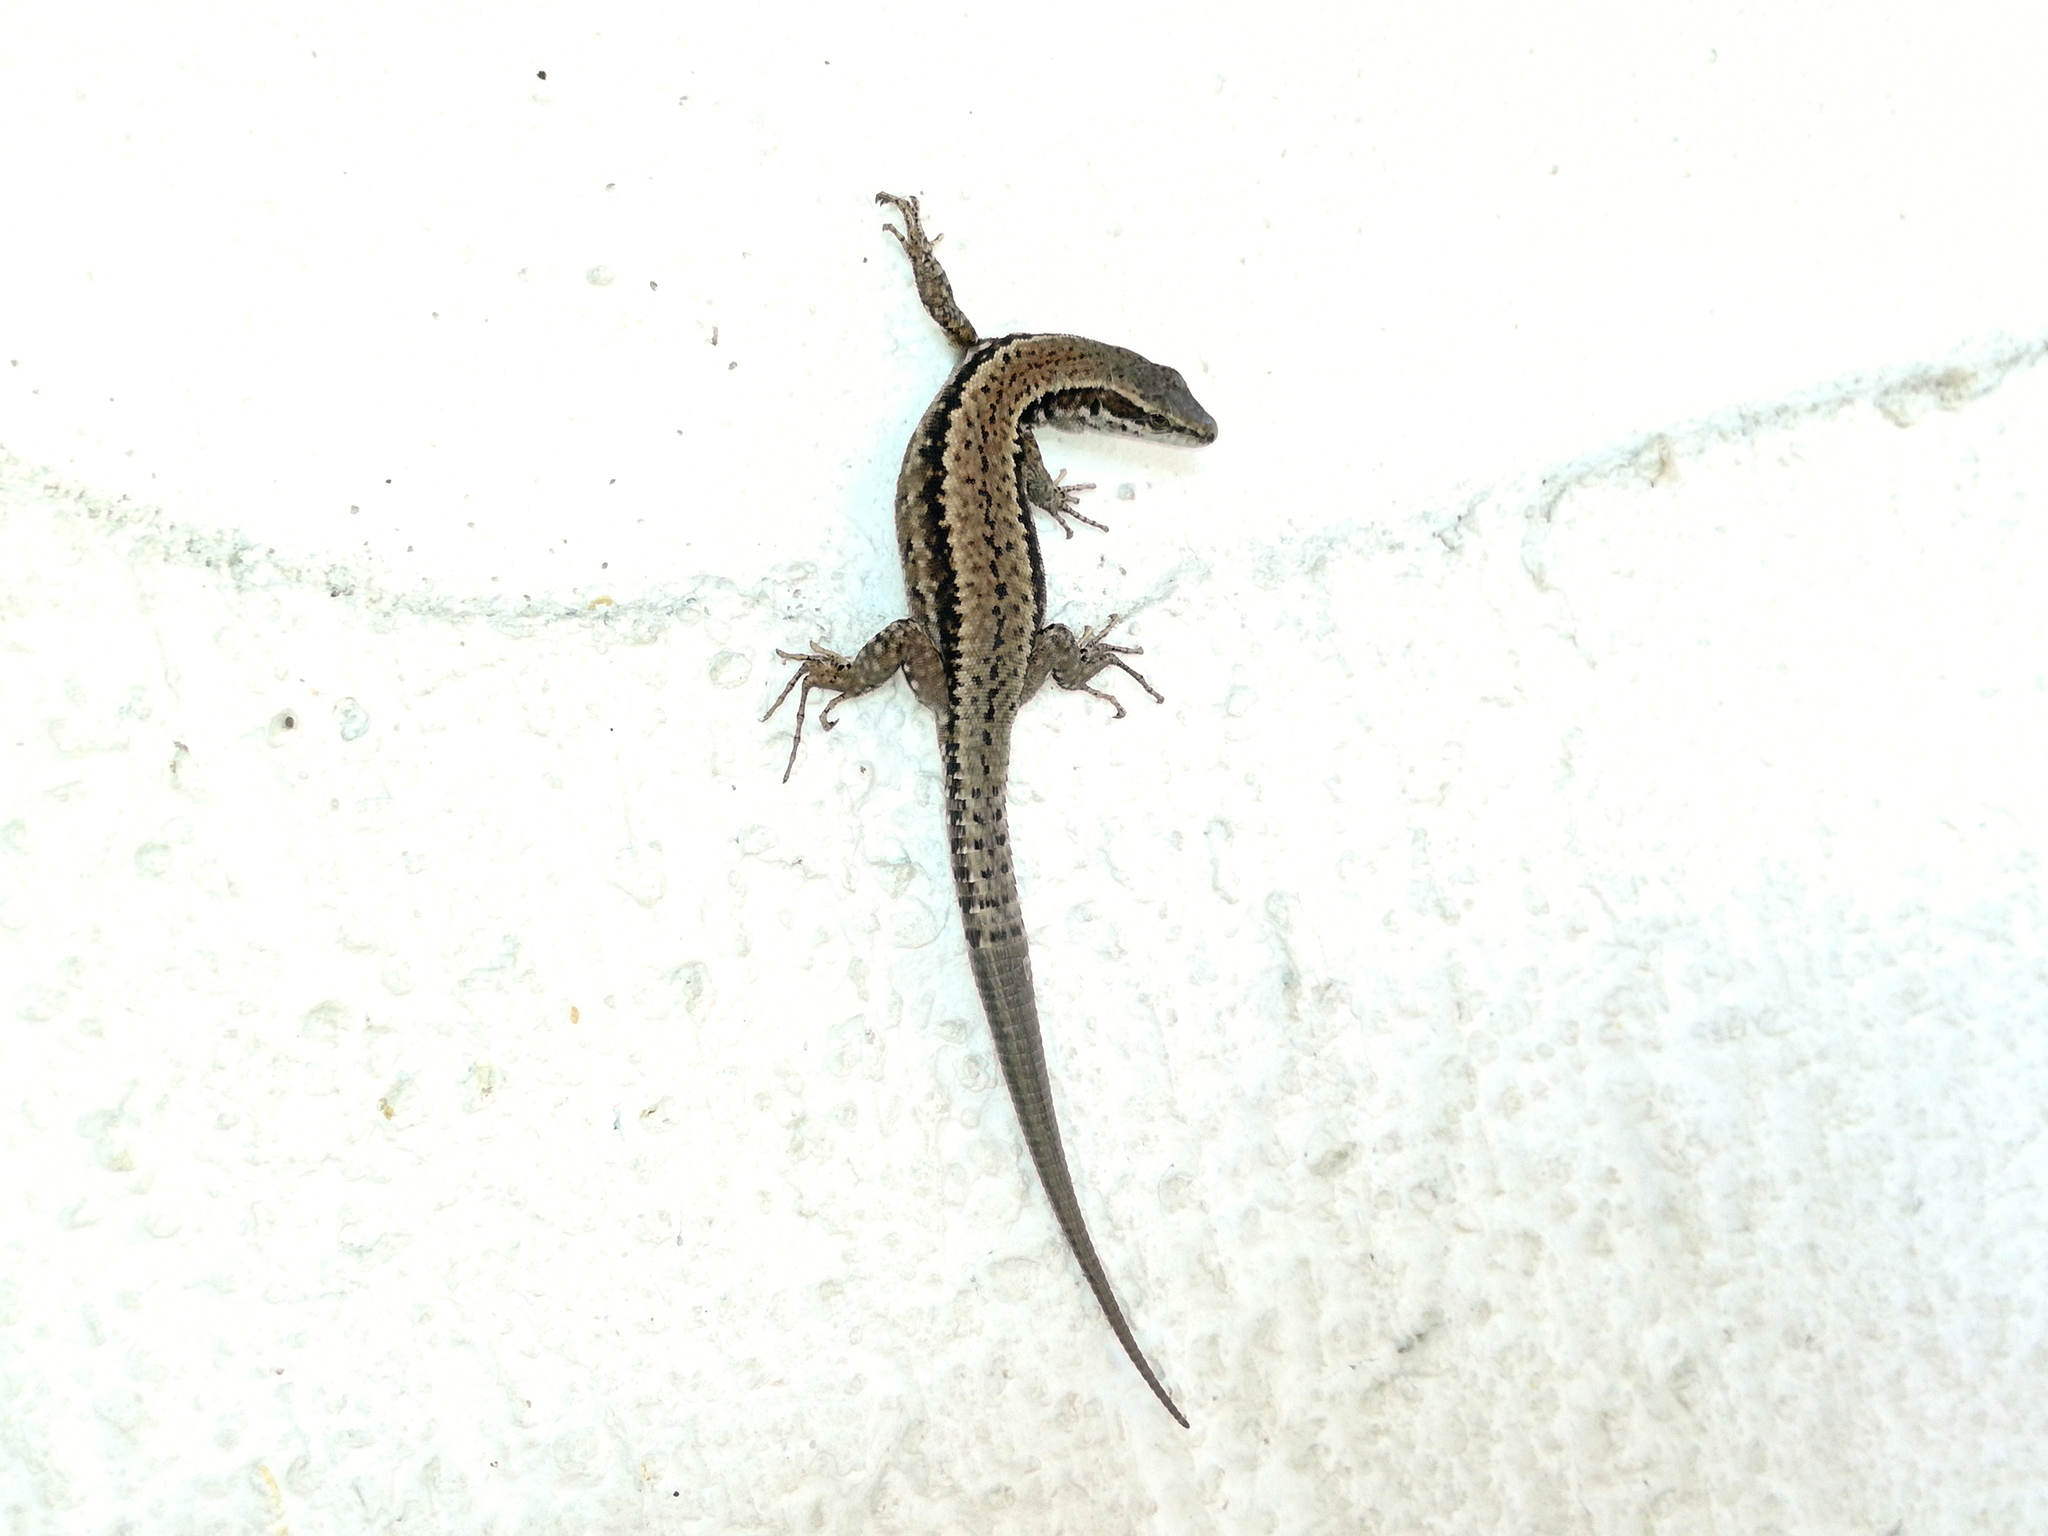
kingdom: Animalia
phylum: Chordata
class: Squamata
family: Lacertidae
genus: Podarcis
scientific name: Podarcis muralis
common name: Common wall lizard
